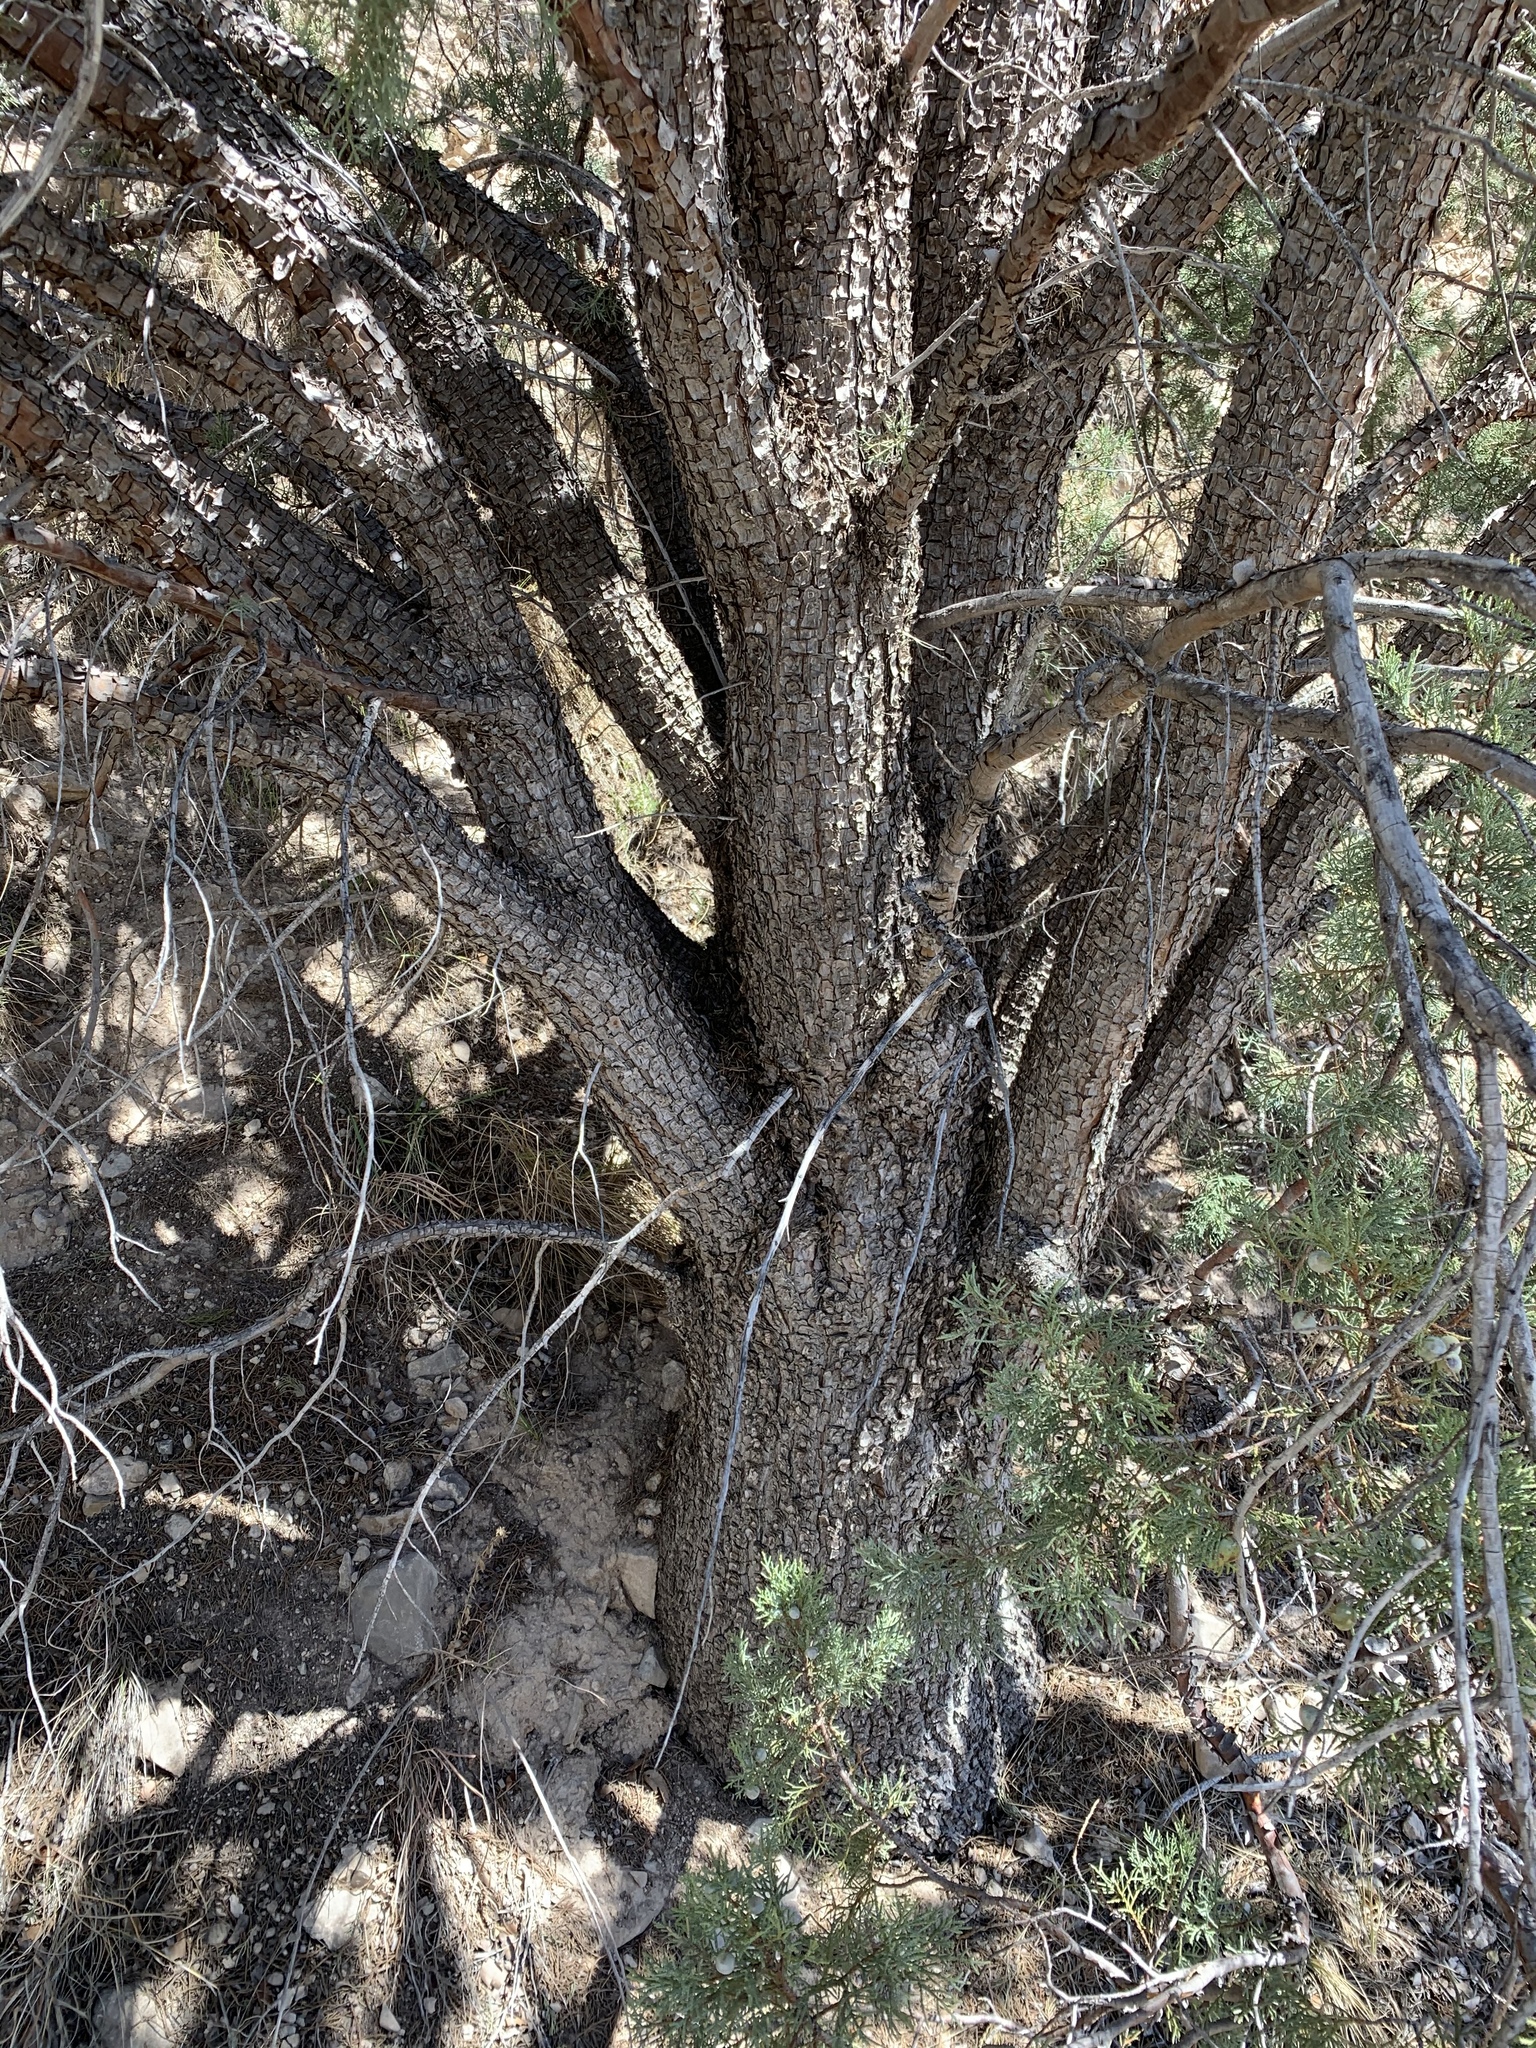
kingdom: Plantae
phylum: Tracheophyta
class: Pinopsida
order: Pinales
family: Cupressaceae
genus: Juniperus
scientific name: Juniperus deppeana
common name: Alligator juniper
